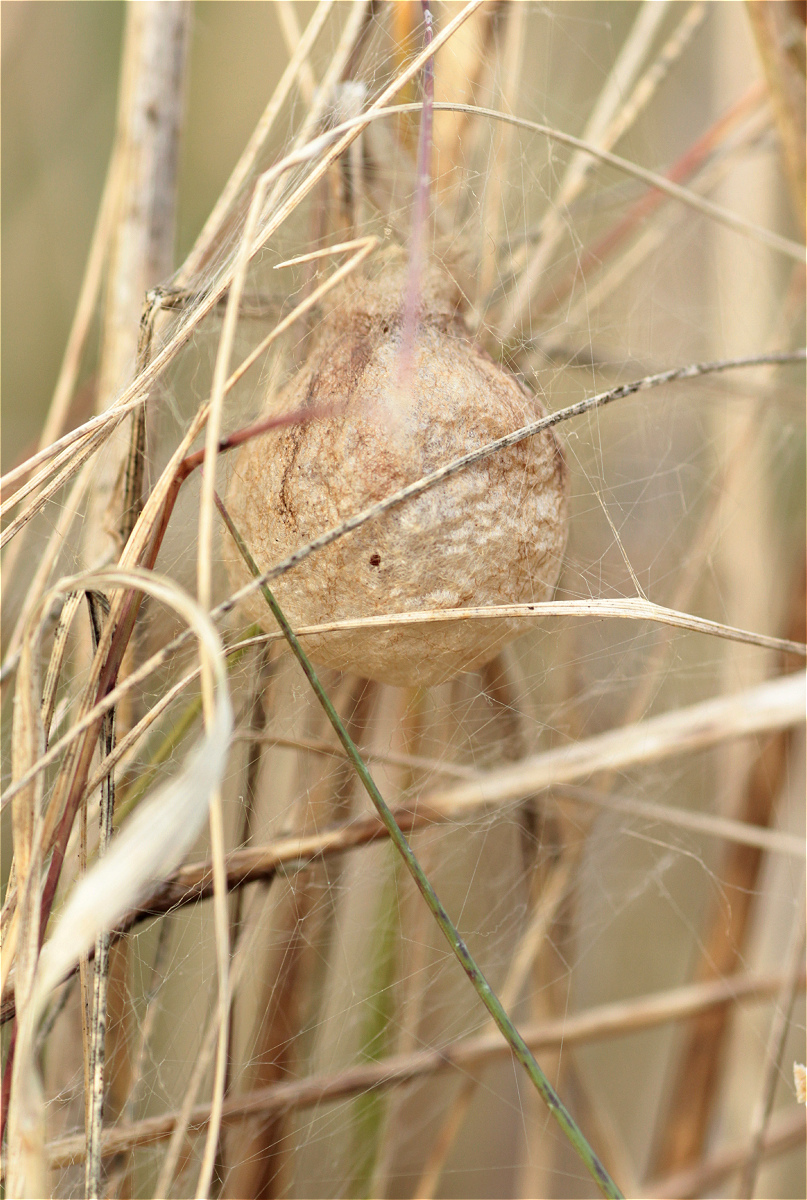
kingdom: Animalia
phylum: Arthropoda
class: Arachnida
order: Araneae
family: Araneidae
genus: Argiope
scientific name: Argiope bruennichi
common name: Wasp spider
